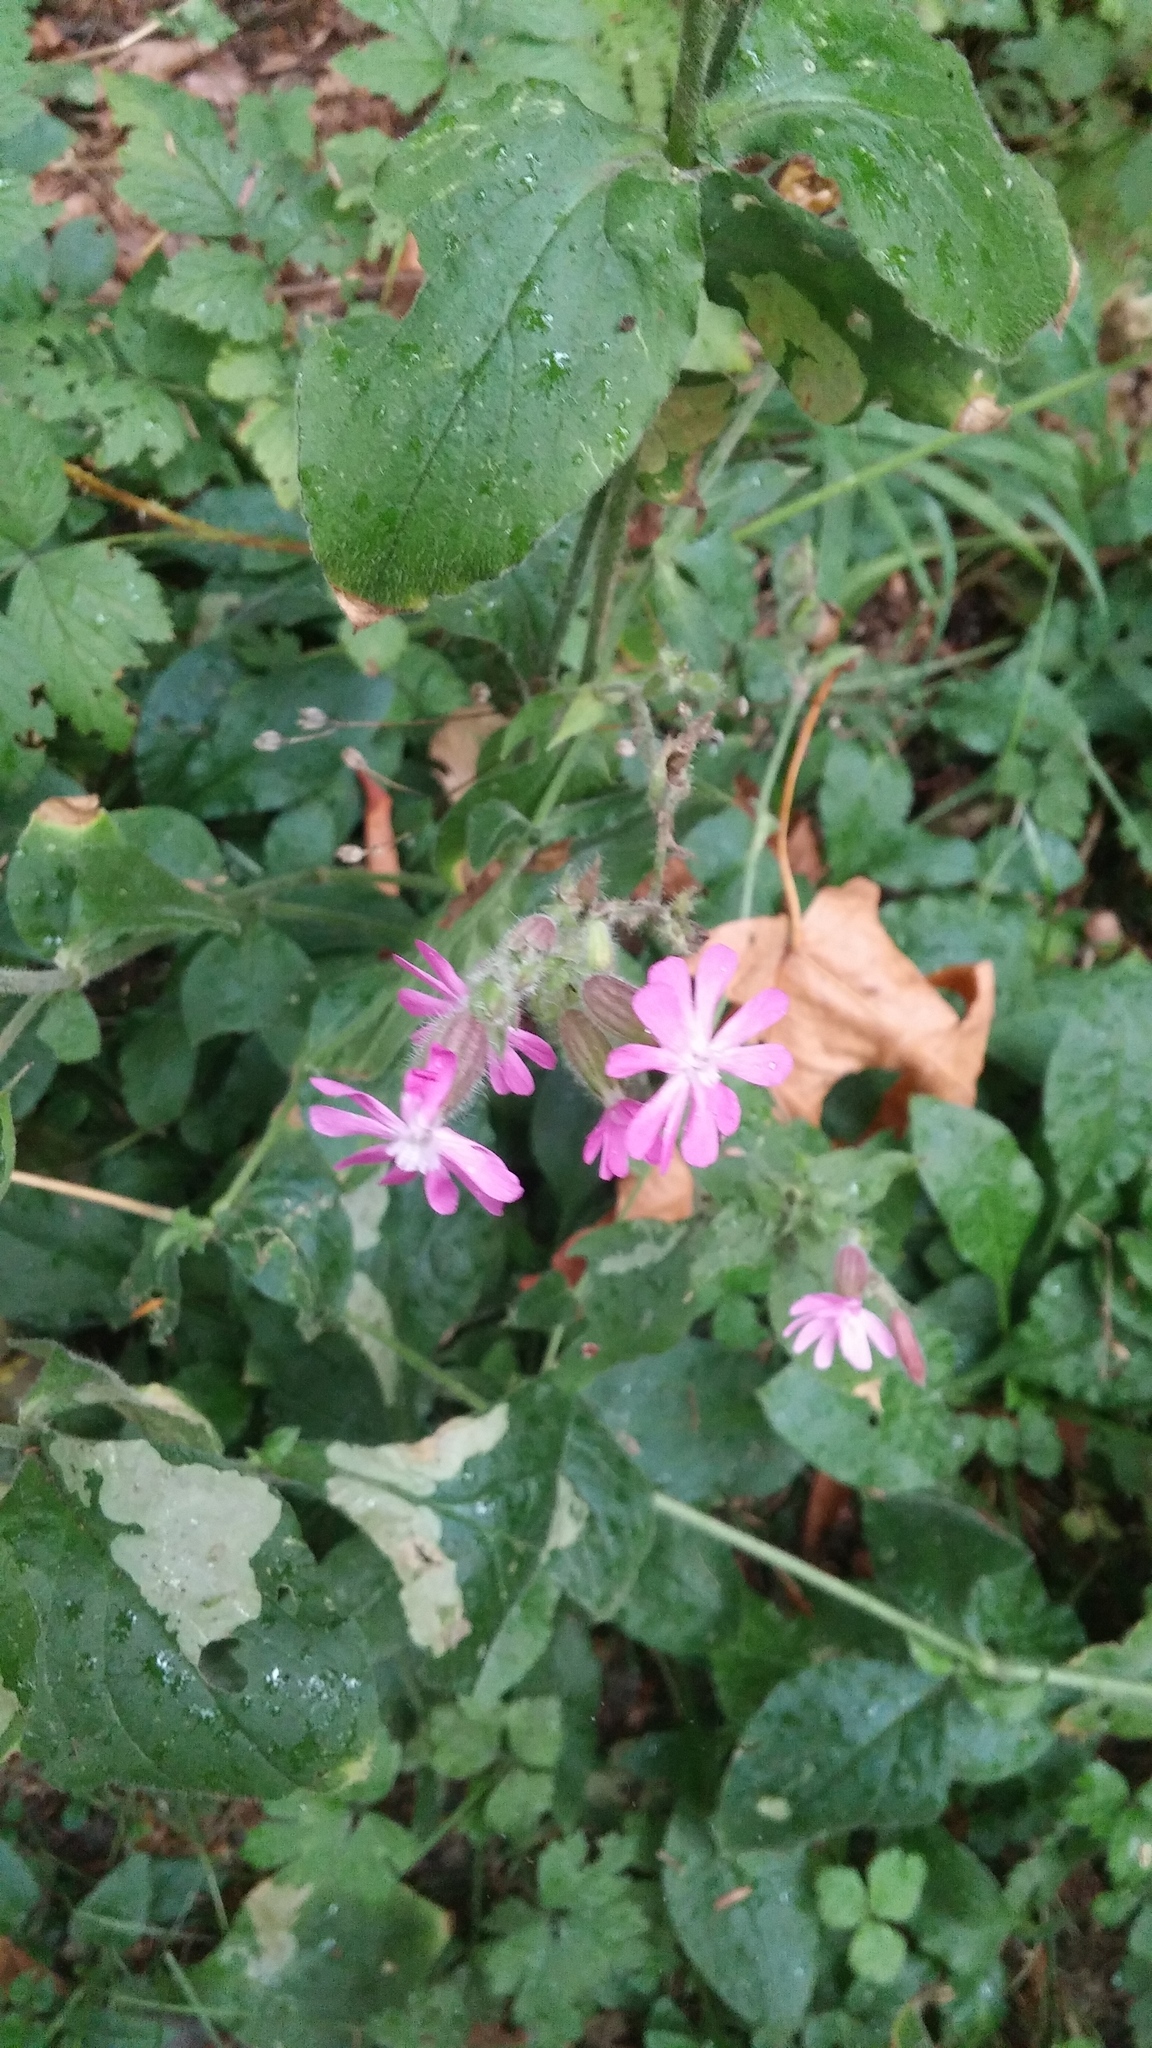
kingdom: Plantae
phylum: Tracheophyta
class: Magnoliopsida
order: Caryophyllales
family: Caryophyllaceae
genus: Silene
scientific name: Silene dioica
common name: Red campion
